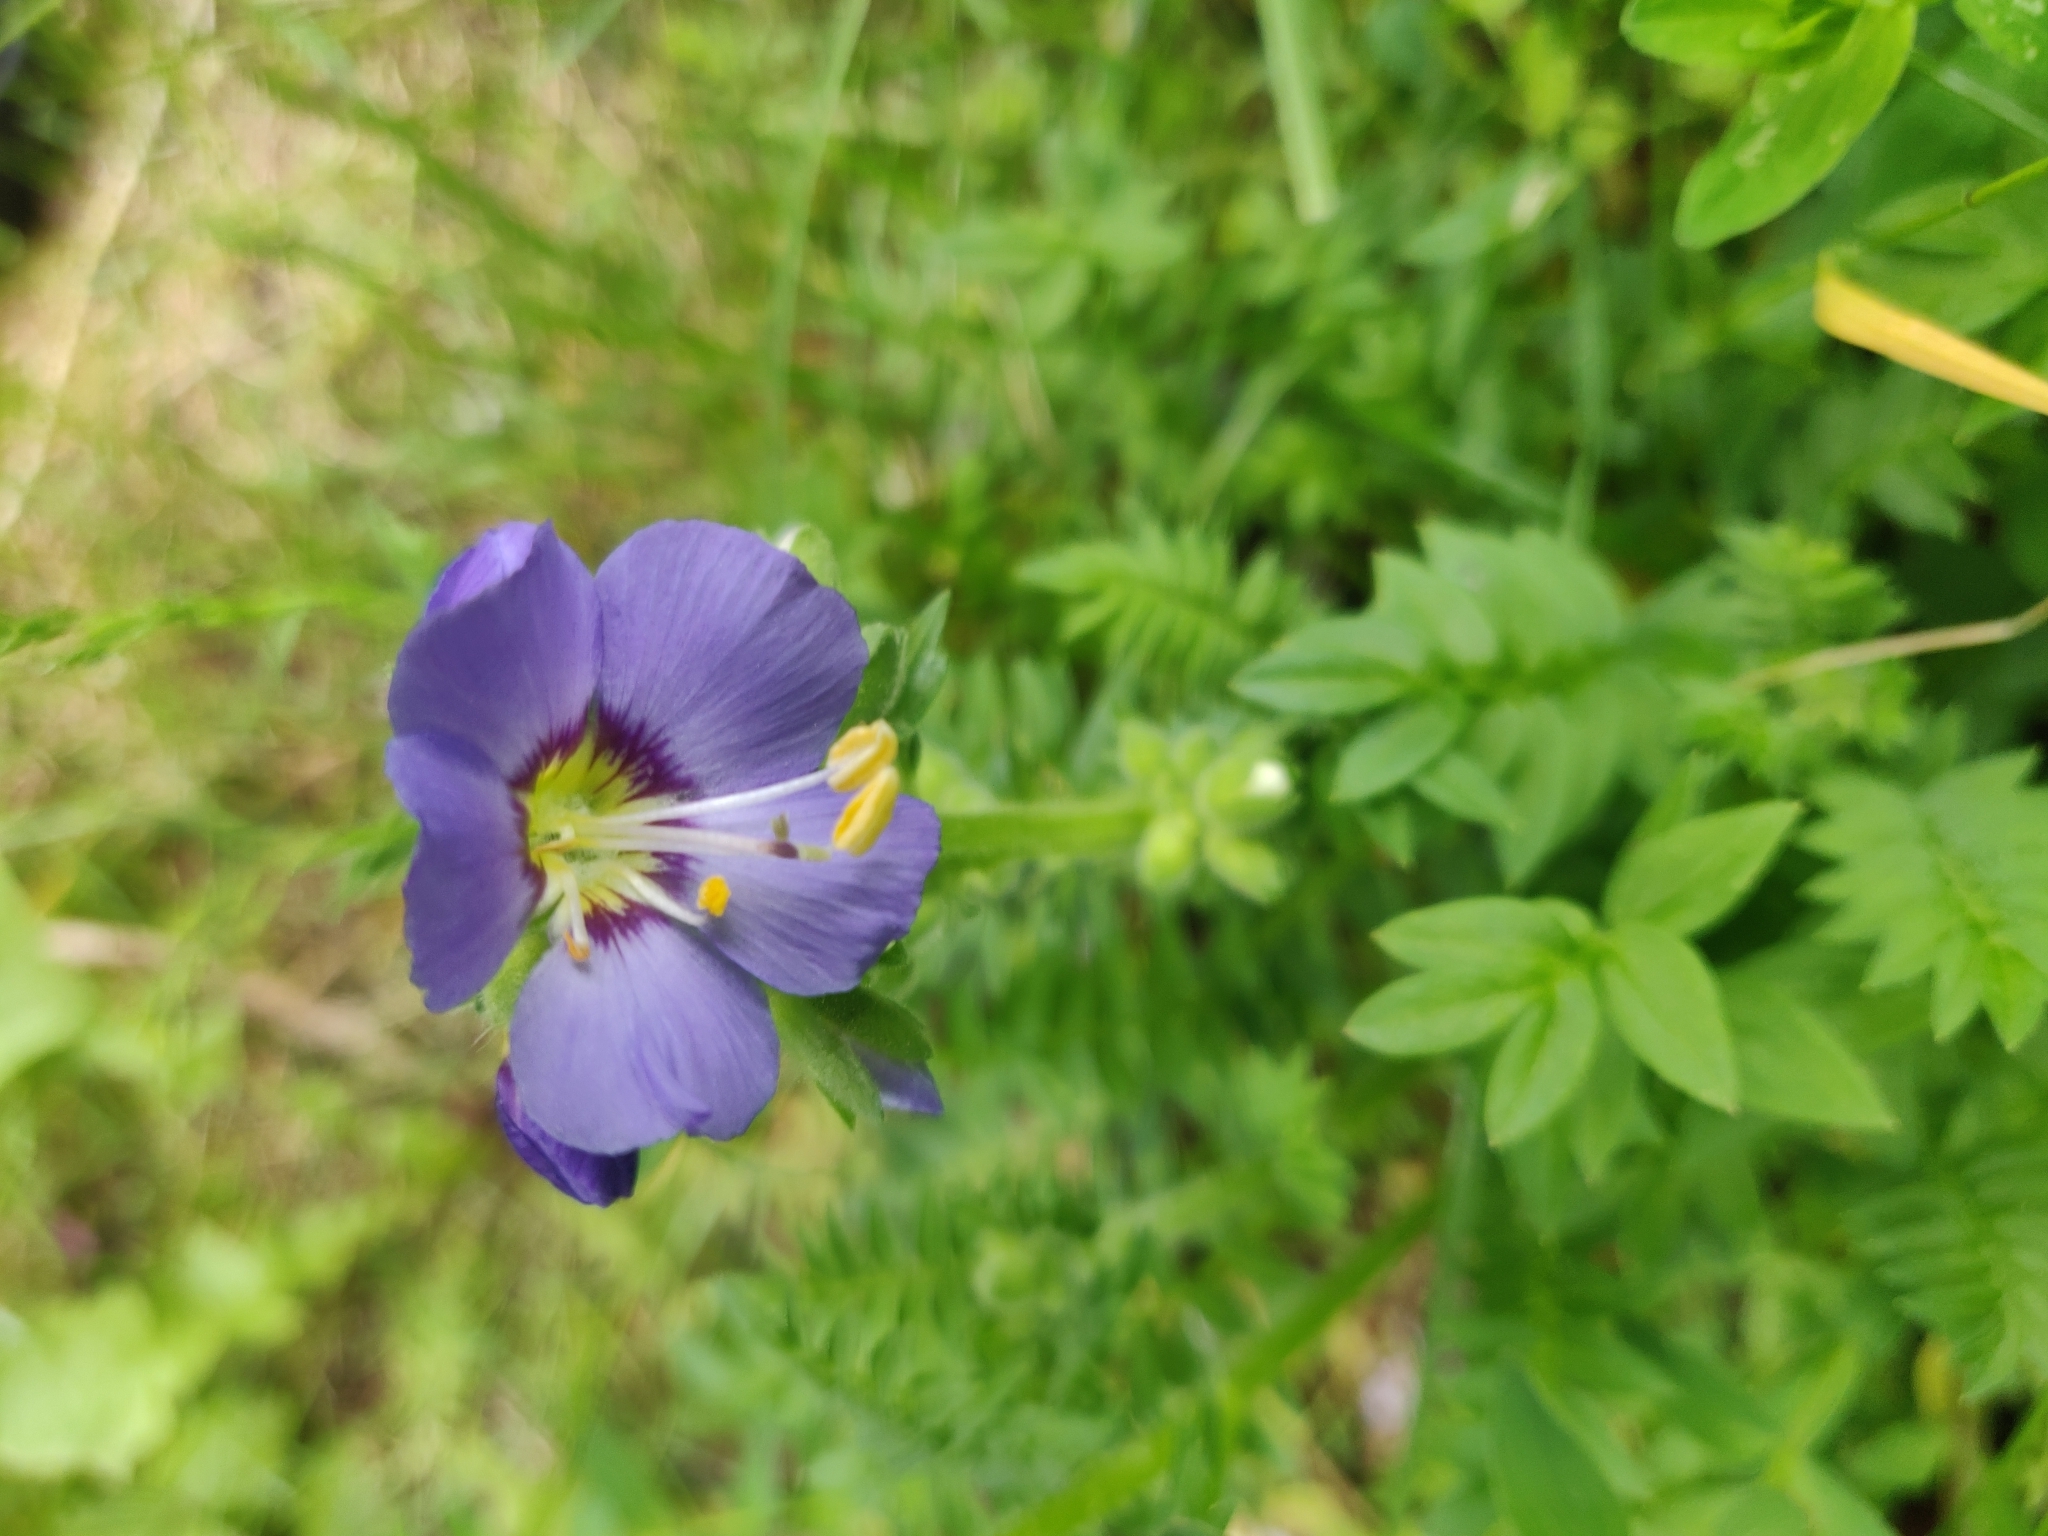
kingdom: Plantae
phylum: Tracheophyta
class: Magnoliopsida
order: Ericales
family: Polemoniaceae
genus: Polemonium
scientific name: Polemonium caeruleum
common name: Jacob's-ladder
